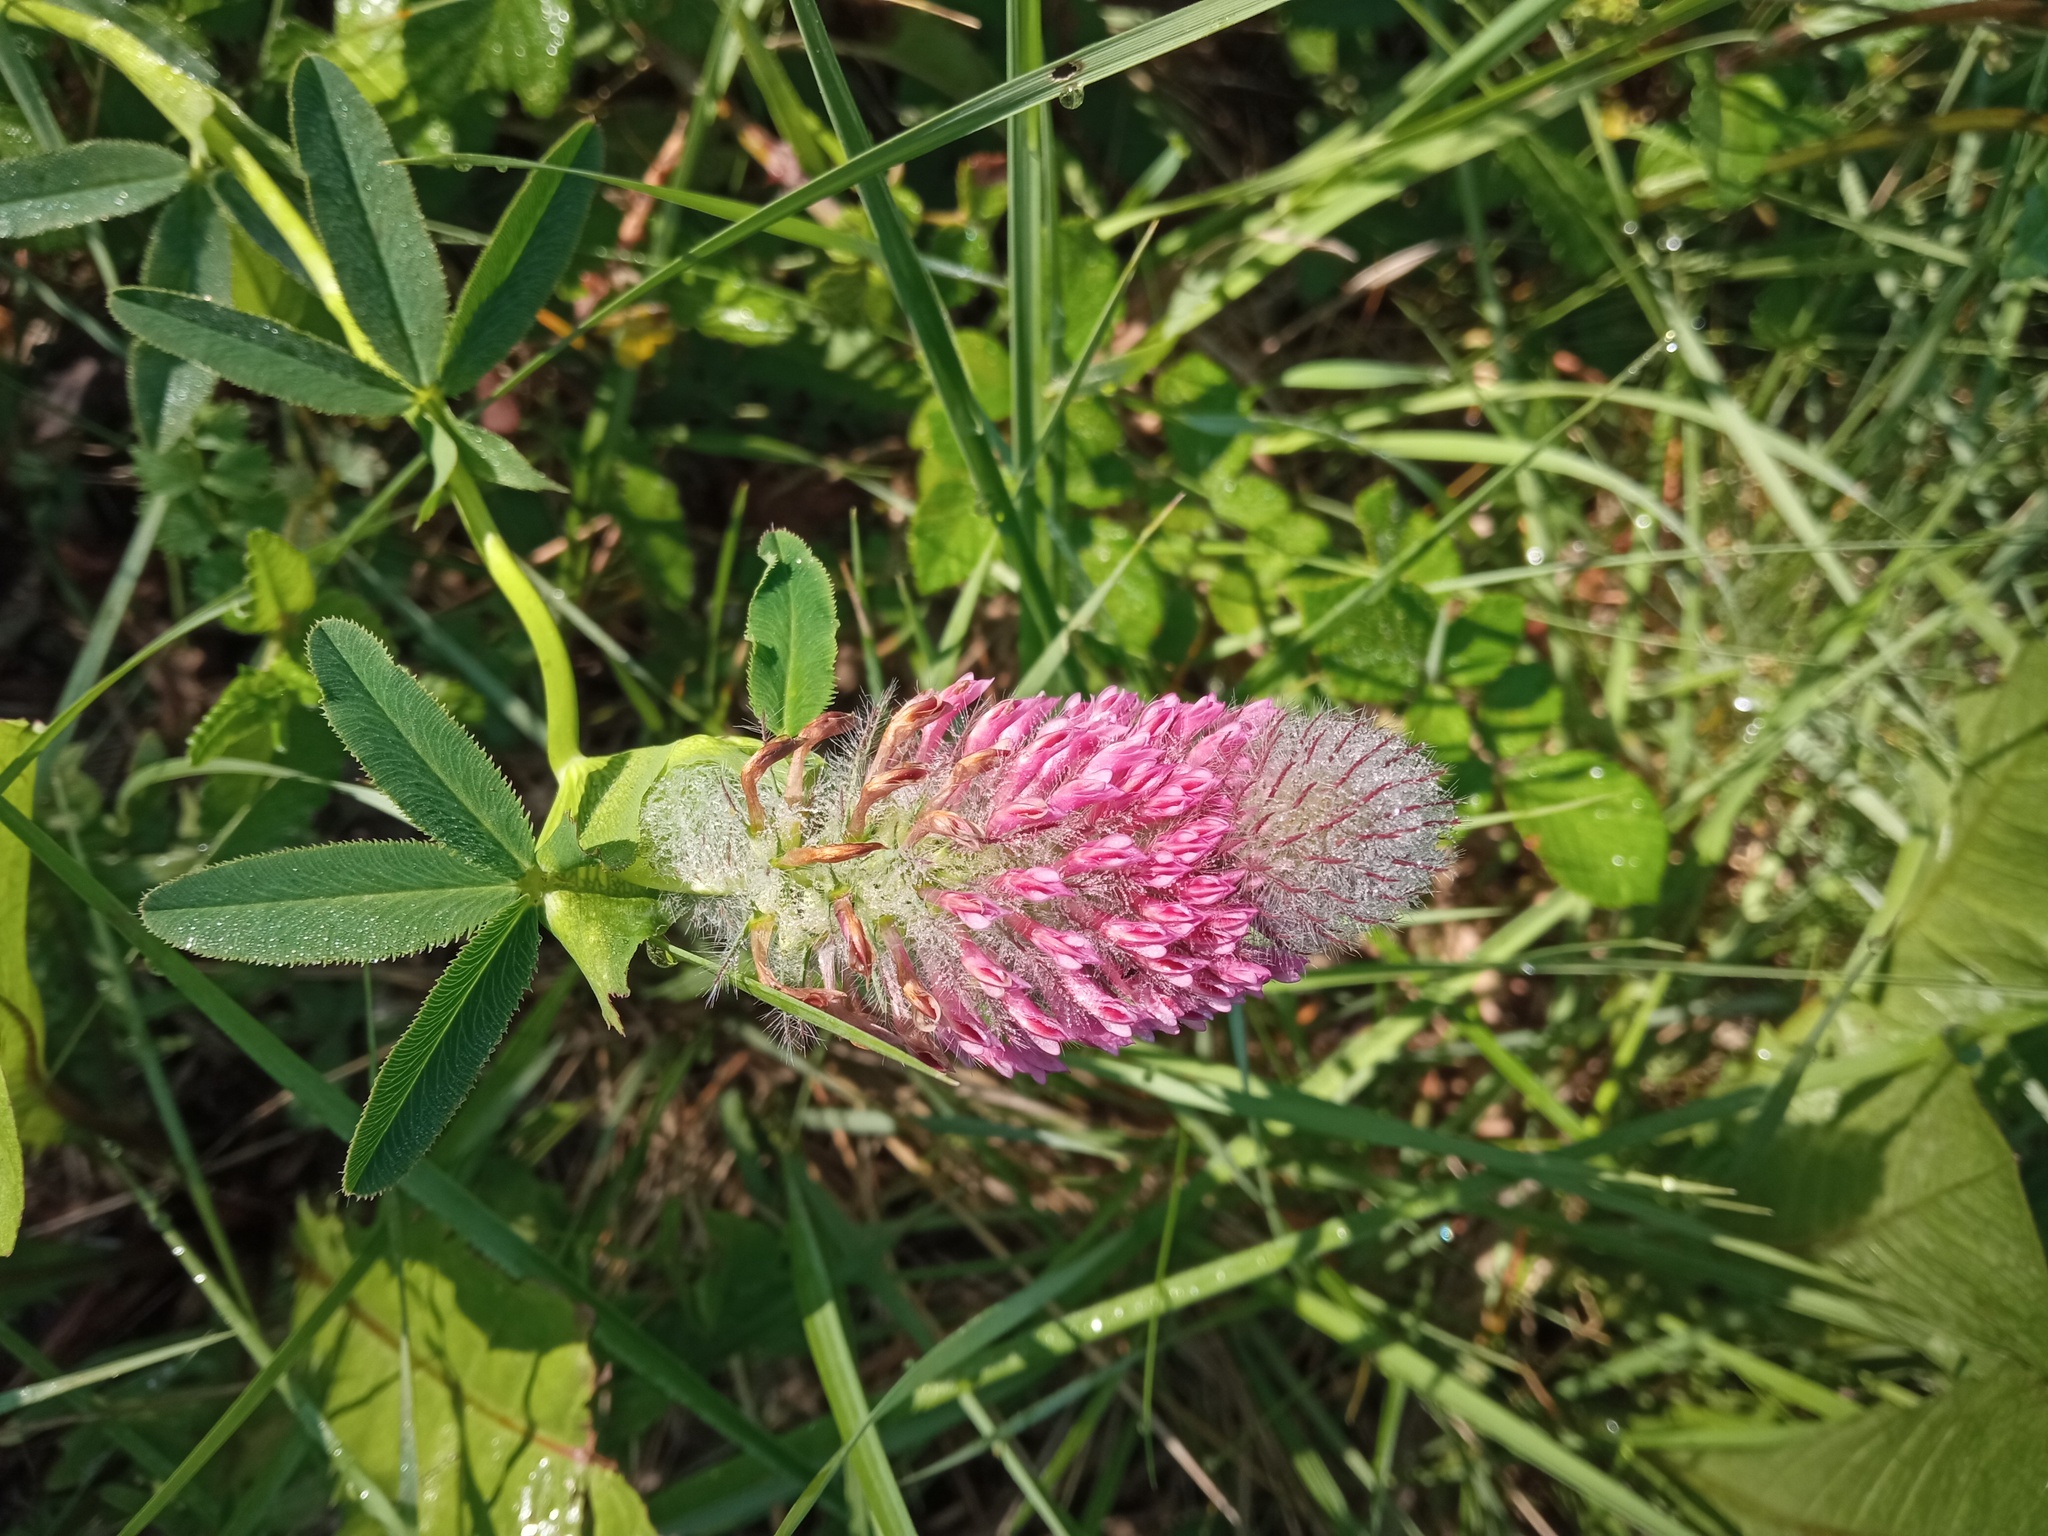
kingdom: Plantae
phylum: Tracheophyta
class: Magnoliopsida
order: Fabales
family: Fabaceae
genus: Trifolium
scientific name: Trifolium rubens
